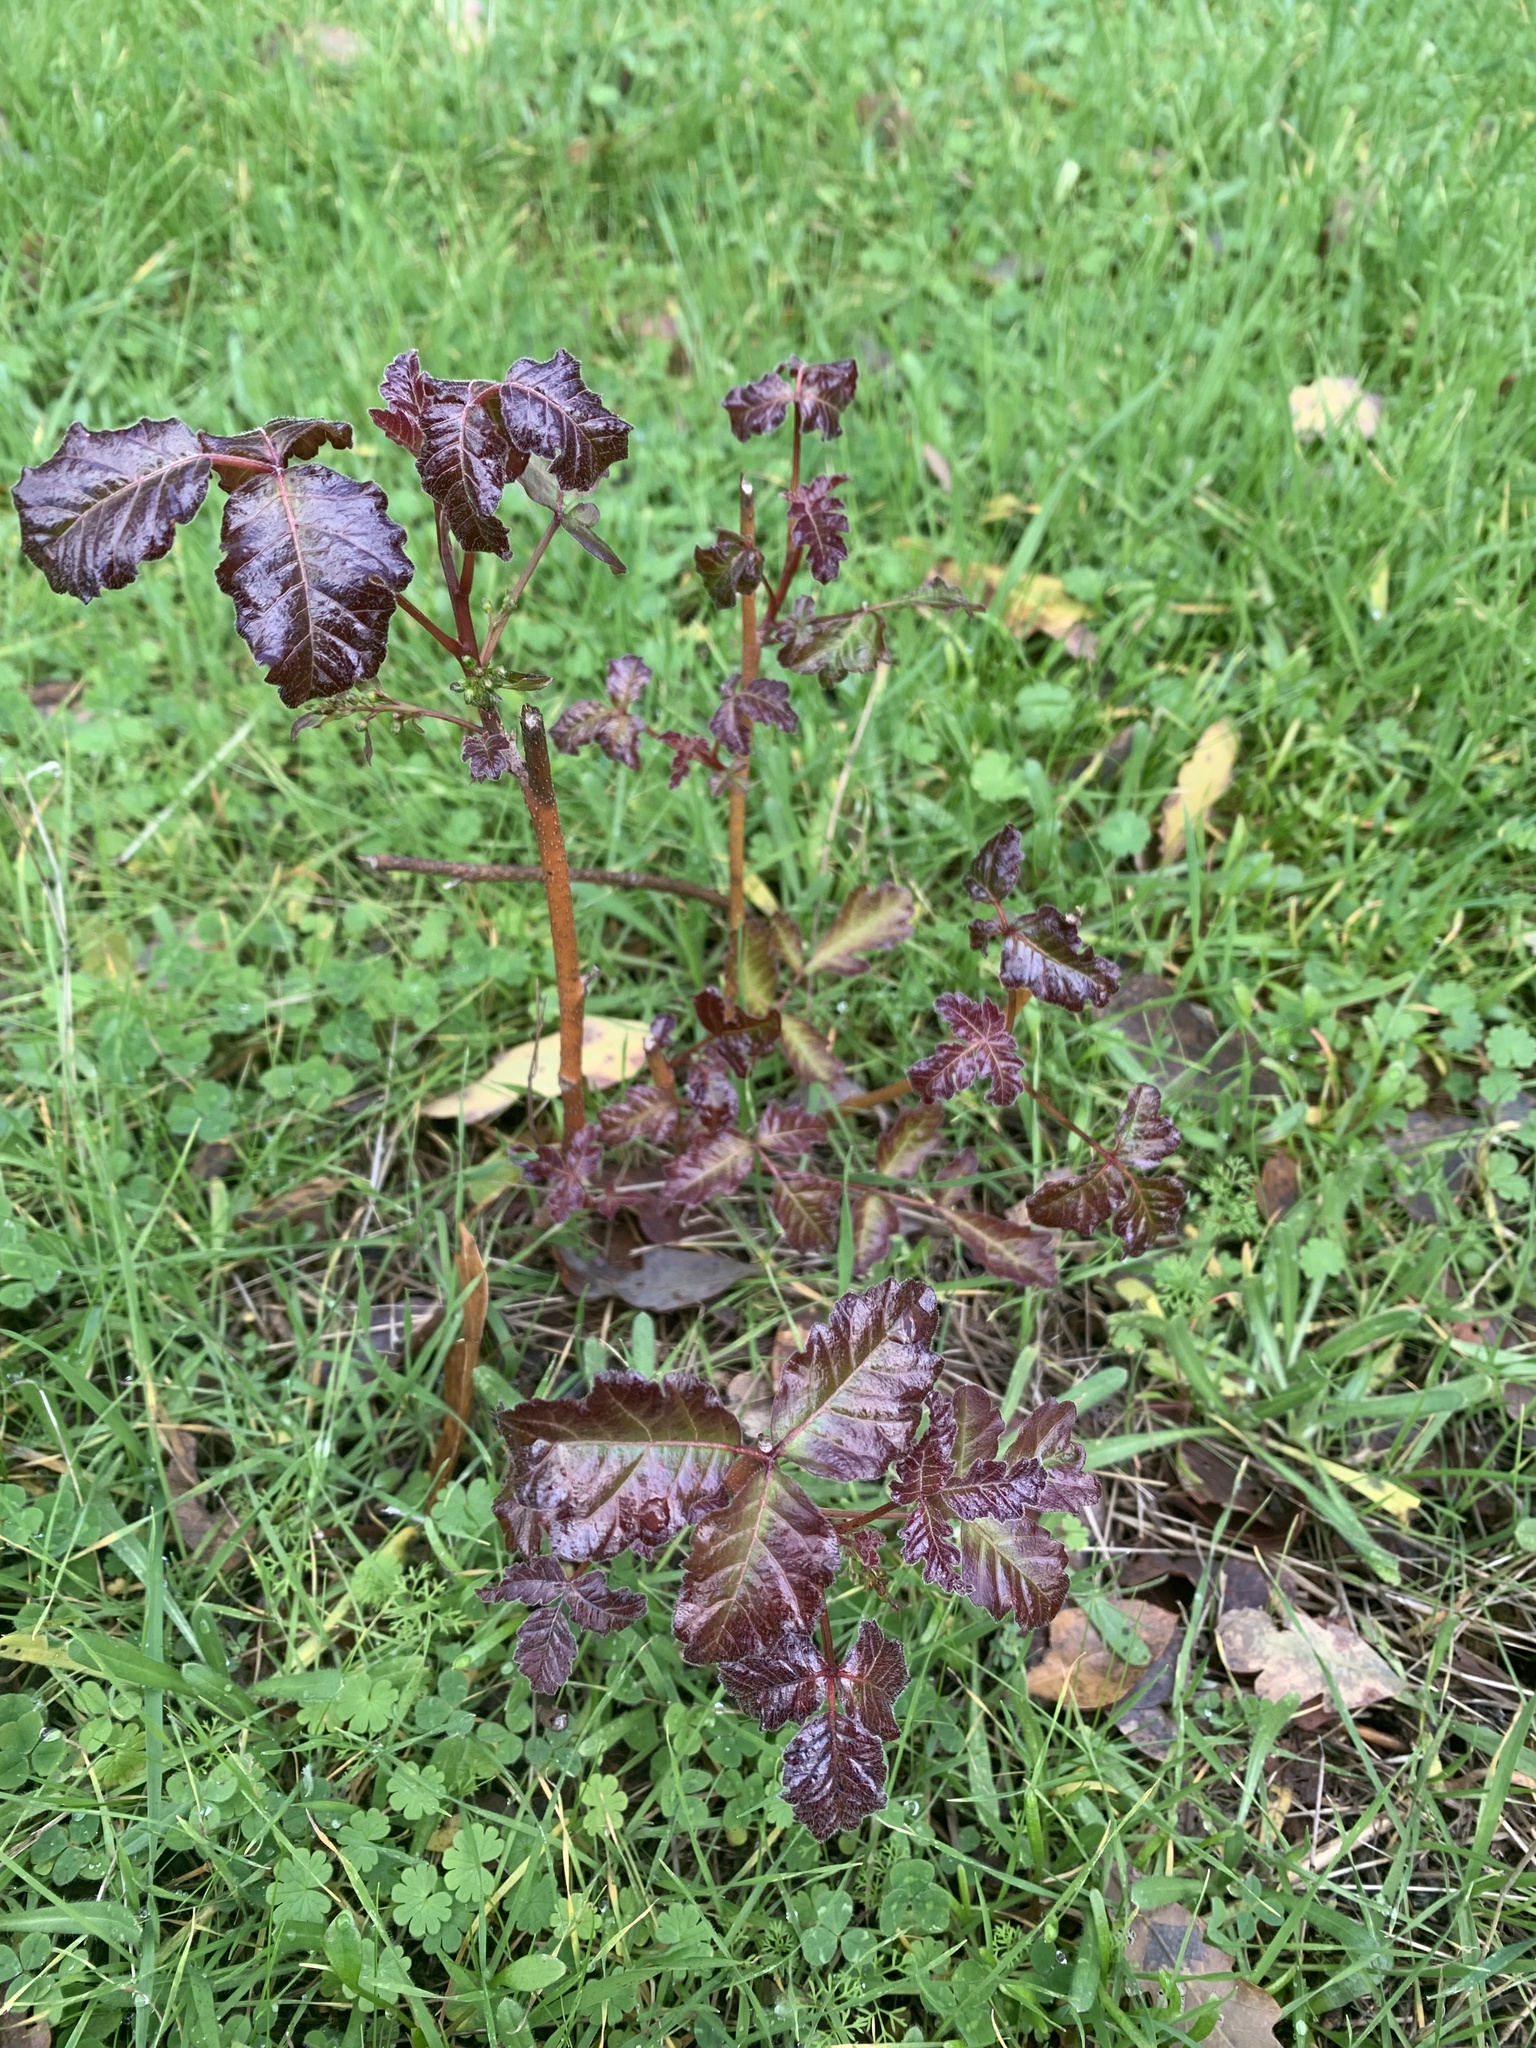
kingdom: Plantae
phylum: Tracheophyta
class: Magnoliopsida
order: Sapindales
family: Anacardiaceae
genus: Toxicodendron
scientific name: Toxicodendron diversilobum
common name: Pacific poison-oak
